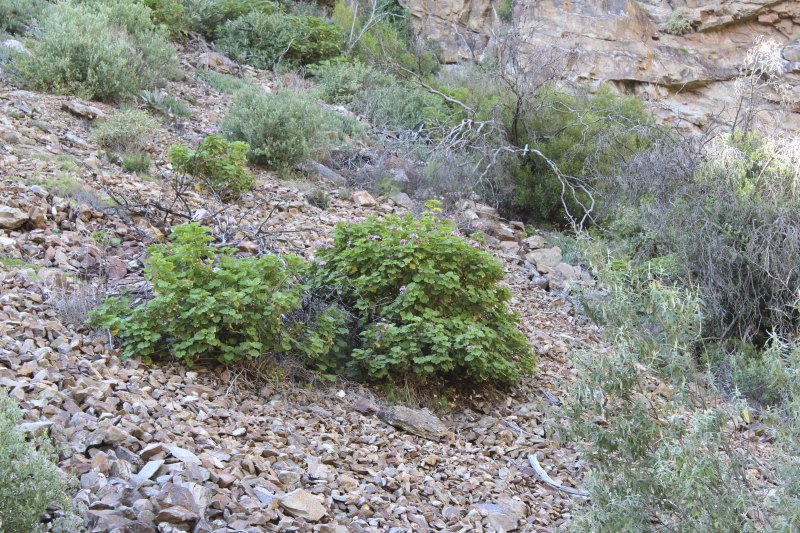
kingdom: Plantae
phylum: Tracheophyta
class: Magnoliopsida
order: Geraniales
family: Geraniaceae
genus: Pelargonium
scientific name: Pelargonium zonale
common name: Horseshoe geranium
